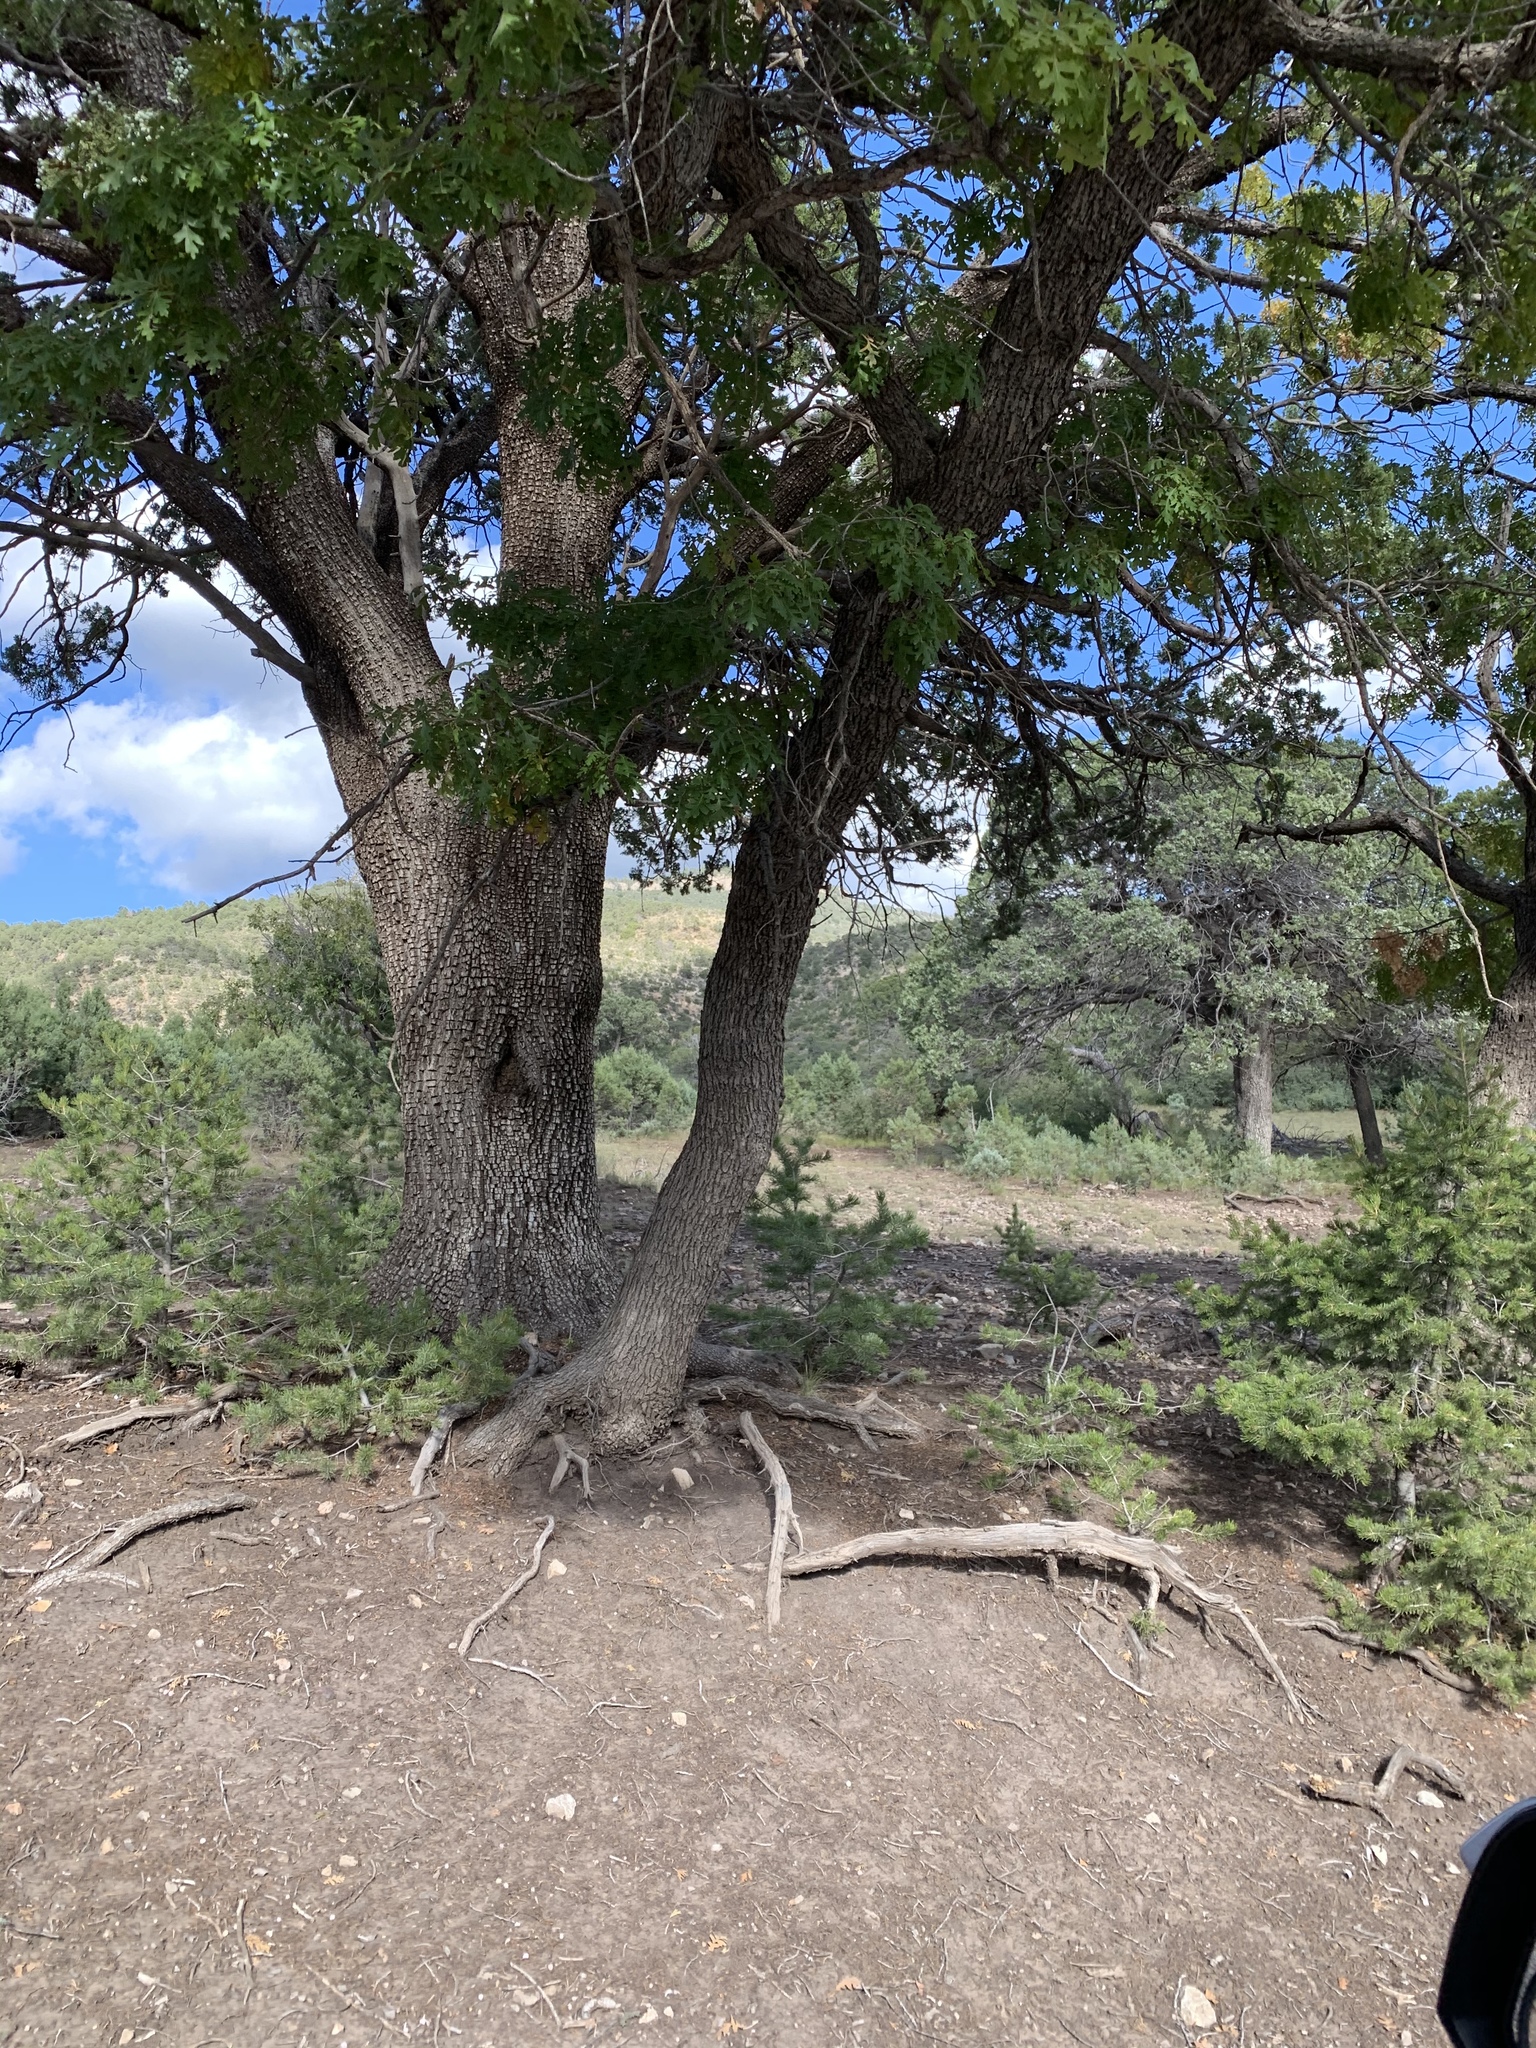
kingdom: Plantae
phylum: Tracheophyta
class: Magnoliopsida
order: Fagales
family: Fagaceae
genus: Quercus
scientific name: Quercus gambelii
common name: Gambel oak
